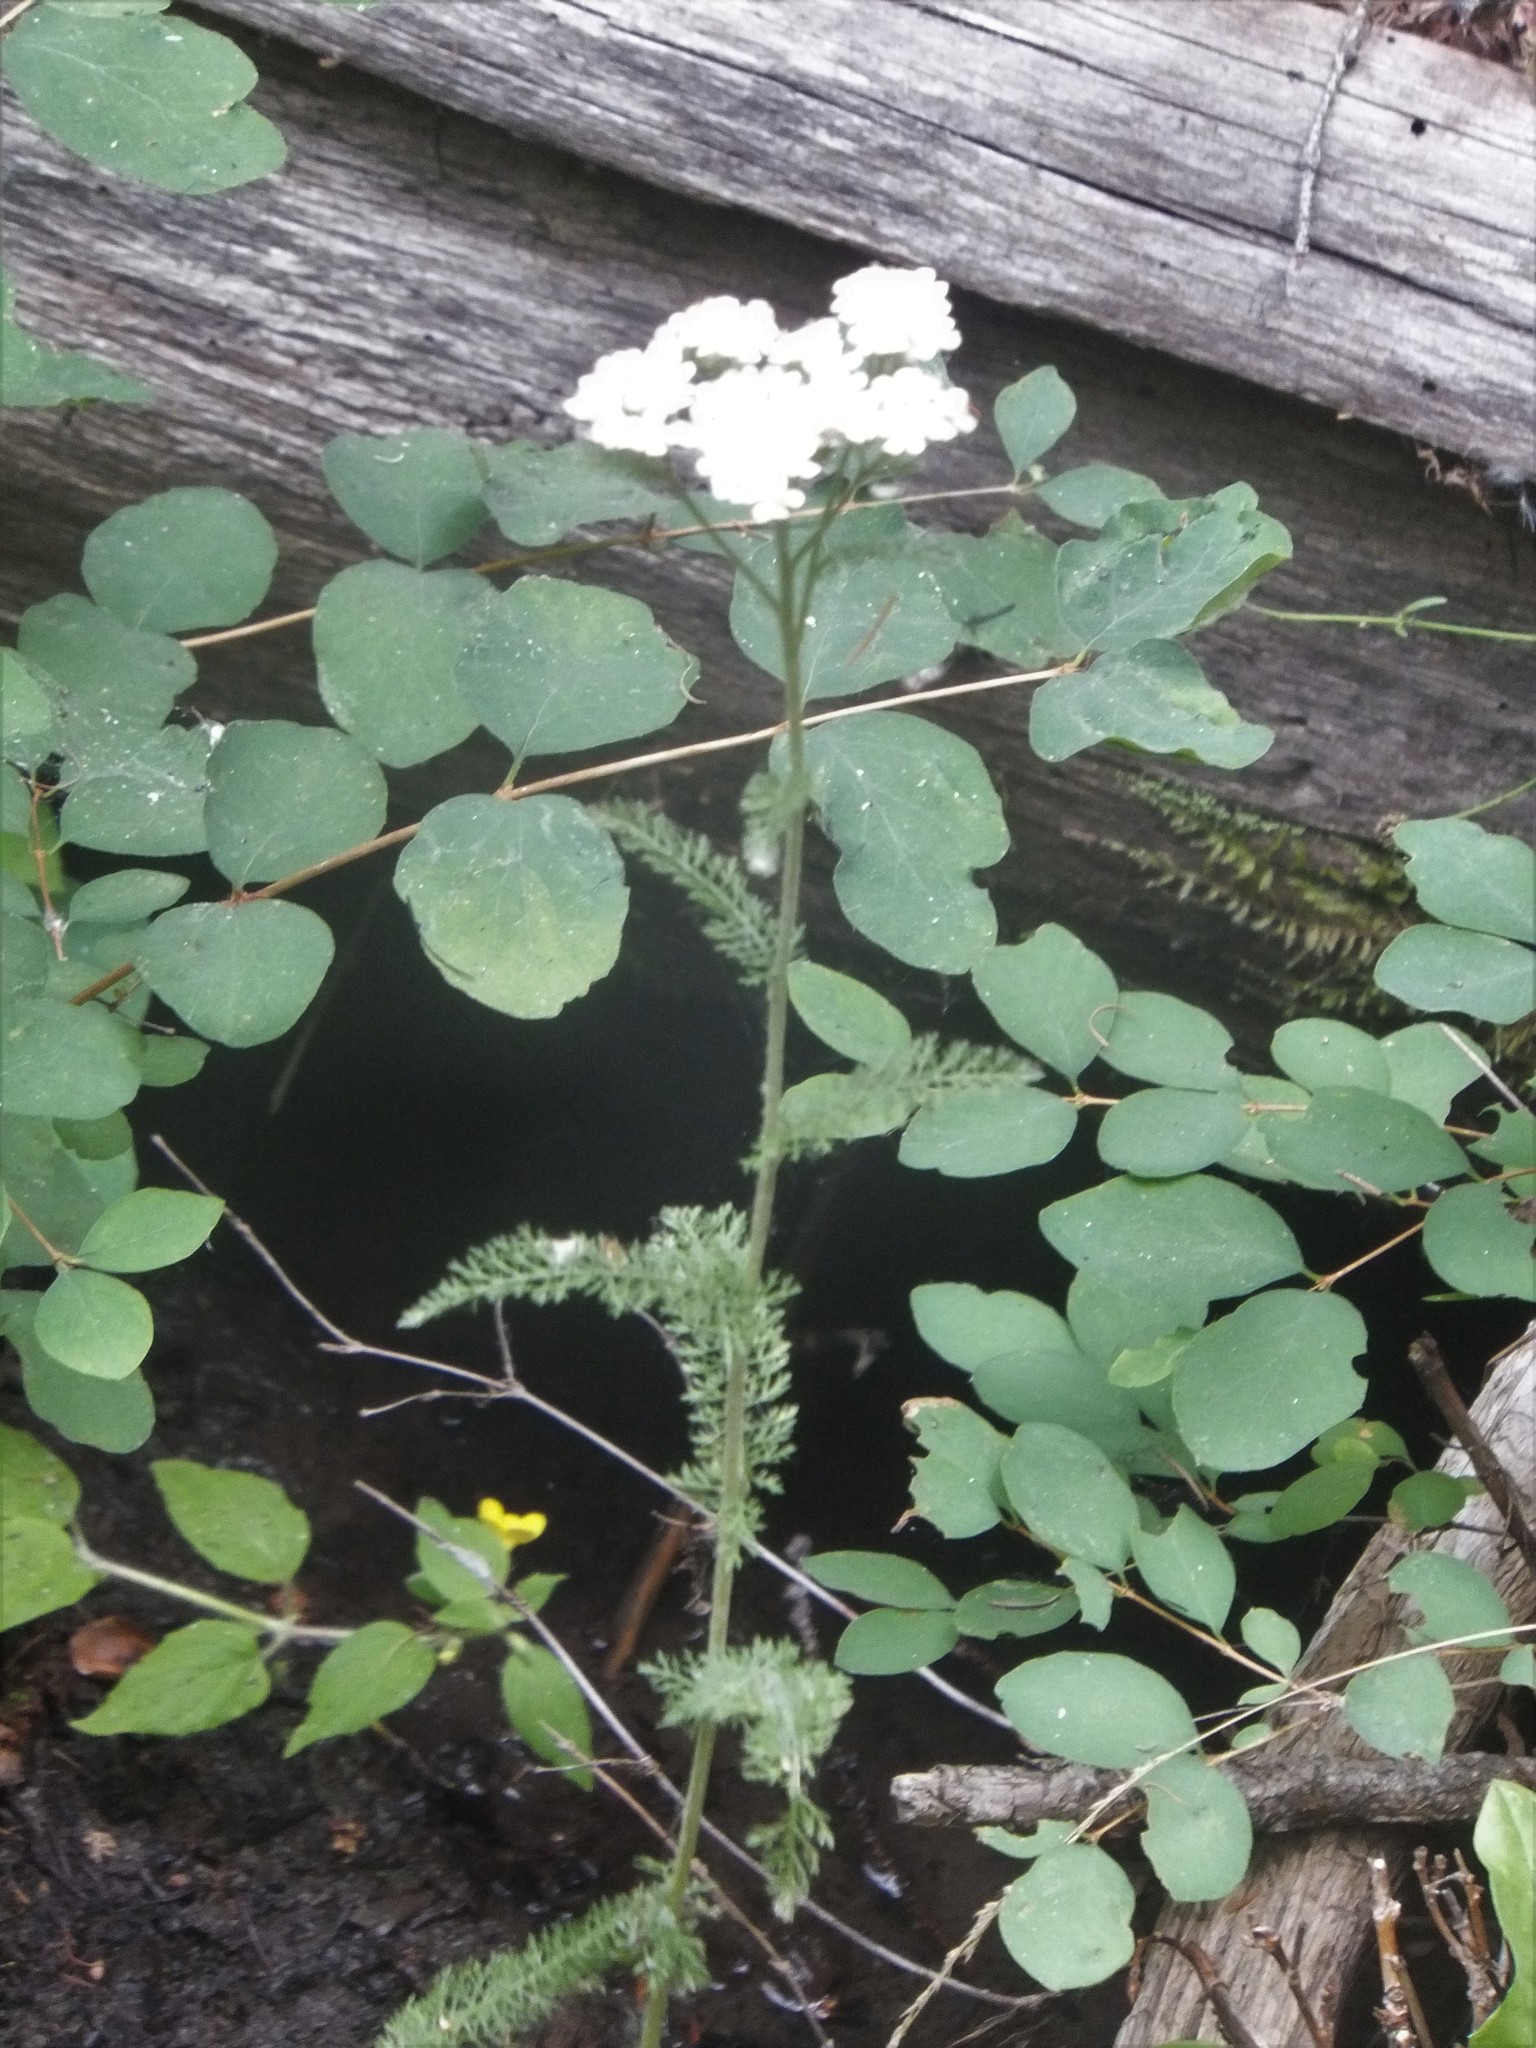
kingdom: Plantae
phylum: Tracheophyta
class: Magnoliopsida
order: Asterales
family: Asteraceae
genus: Achillea
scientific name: Achillea millefolium
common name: Yarrow
